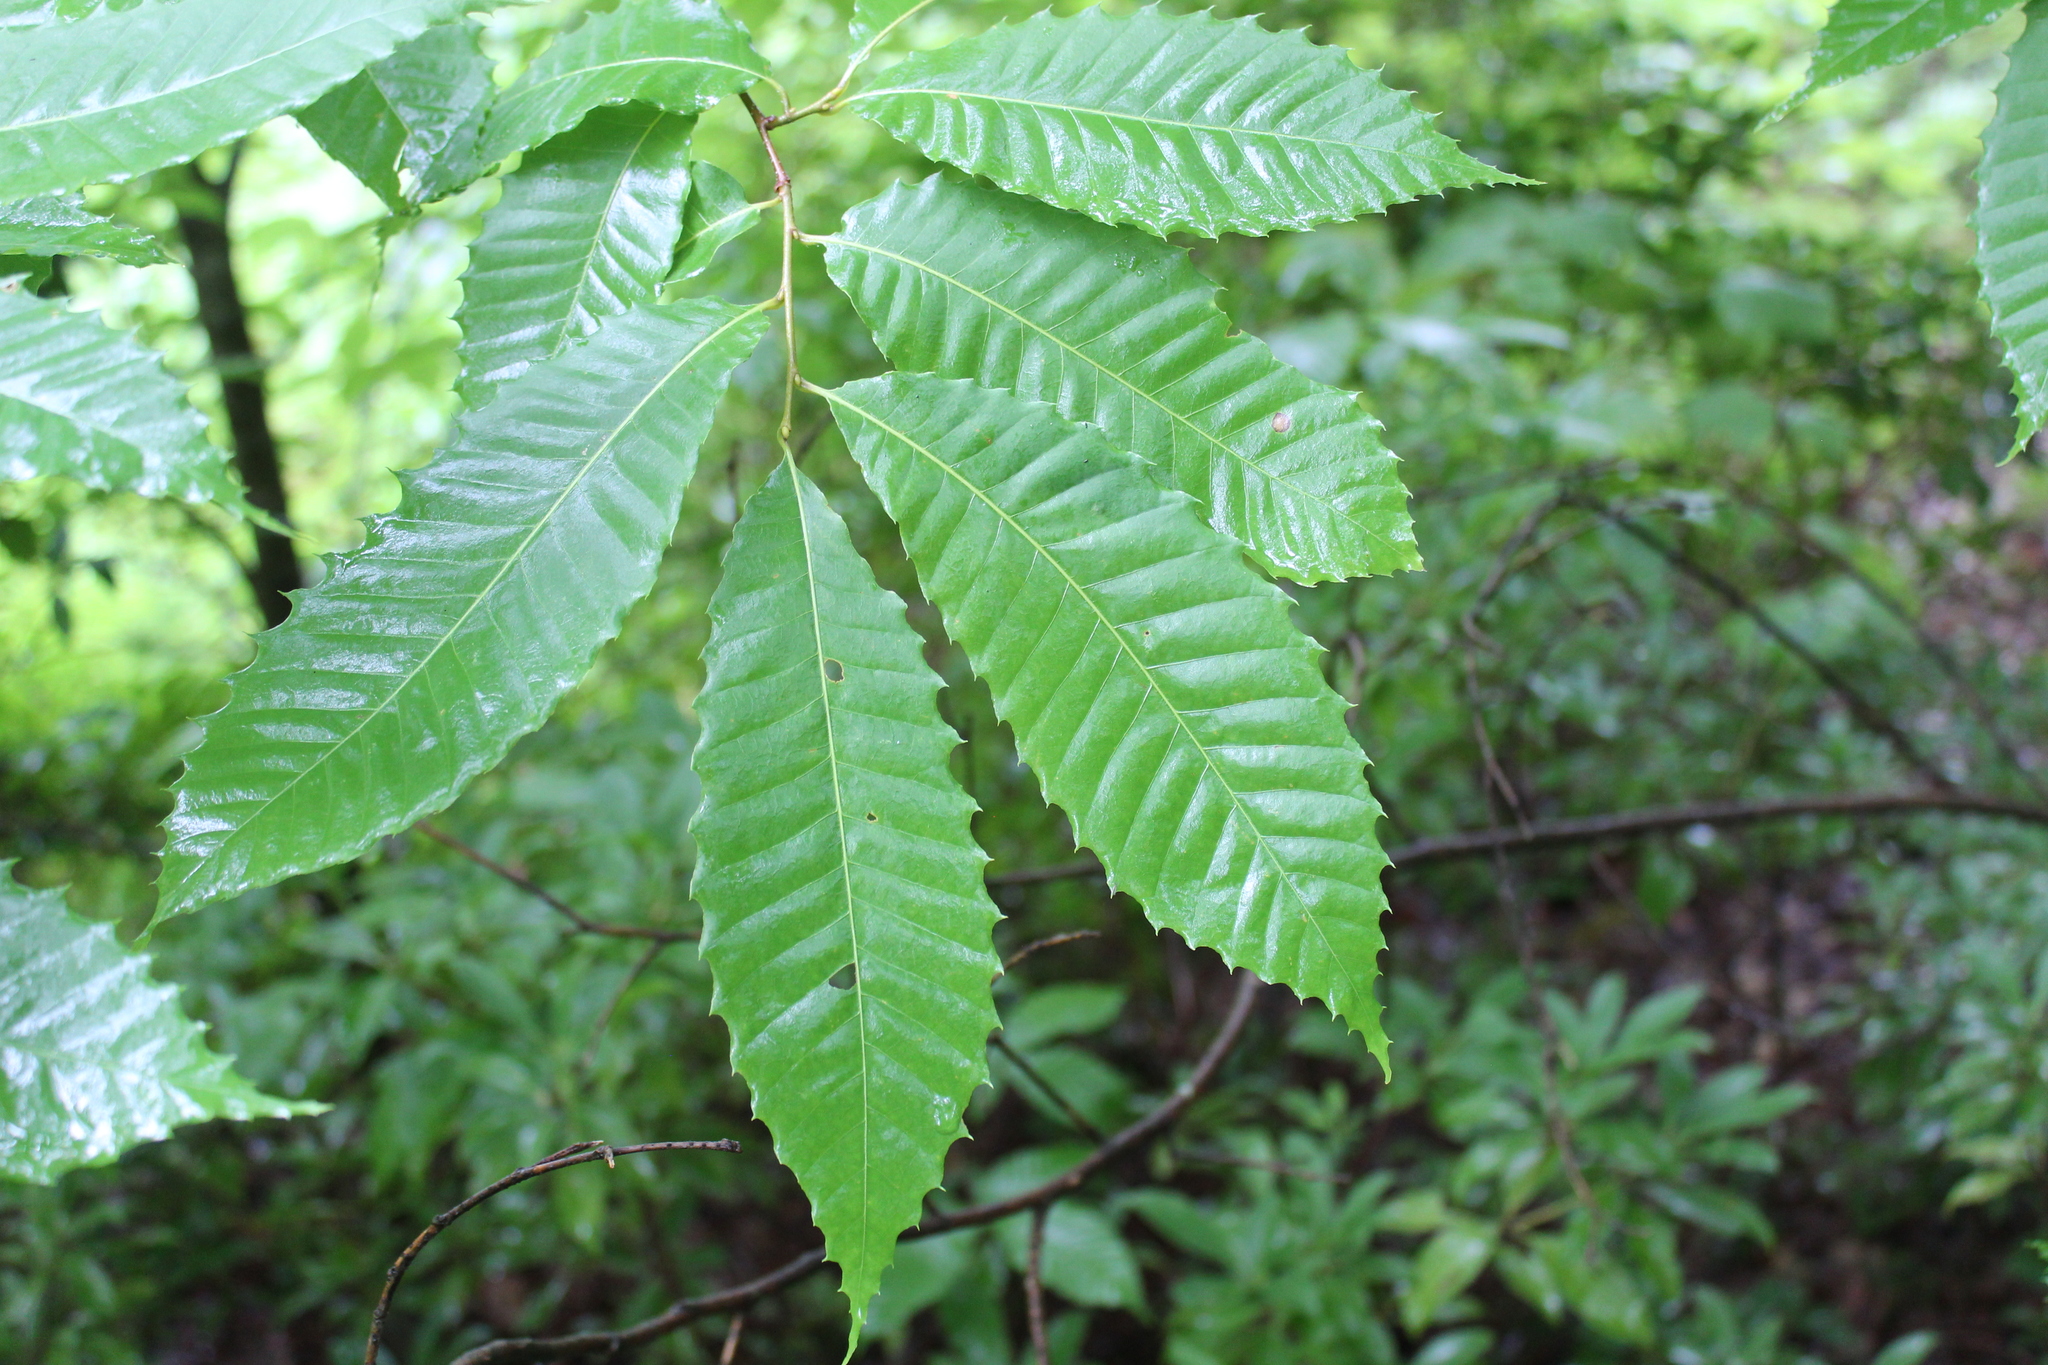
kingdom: Plantae
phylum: Tracheophyta
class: Magnoliopsida
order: Fagales
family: Fagaceae
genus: Castanea
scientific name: Castanea dentata
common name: American chestnut
